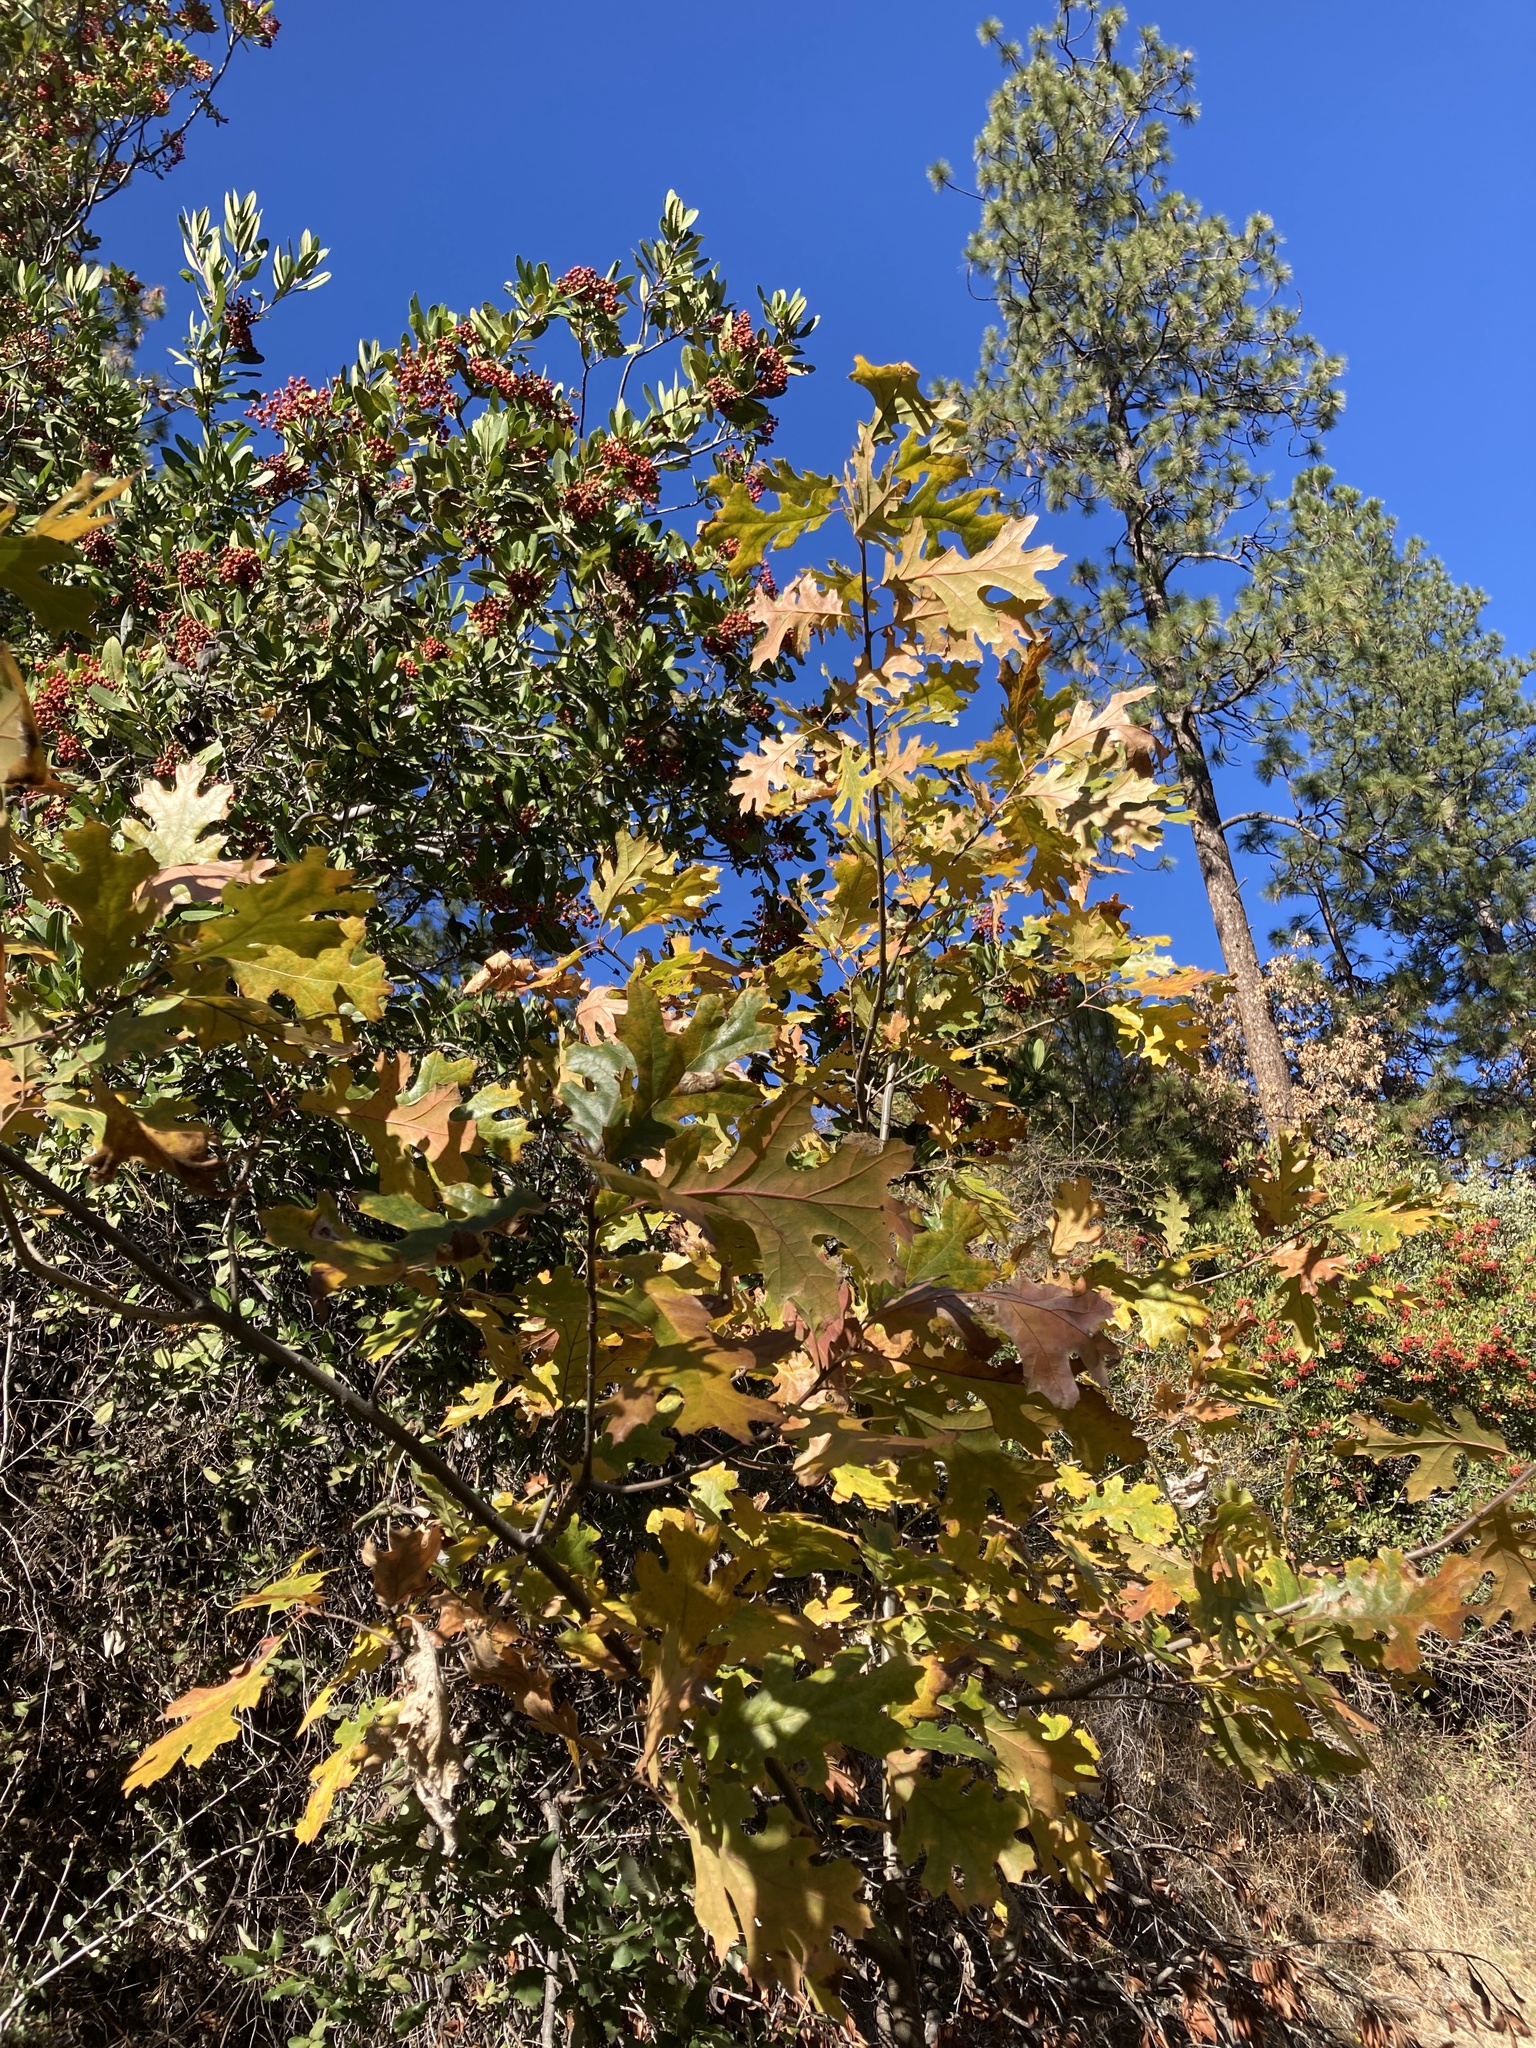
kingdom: Plantae
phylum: Tracheophyta
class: Magnoliopsida
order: Fagales
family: Fagaceae
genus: Quercus
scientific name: Quercus kelloggii
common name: California black oak
